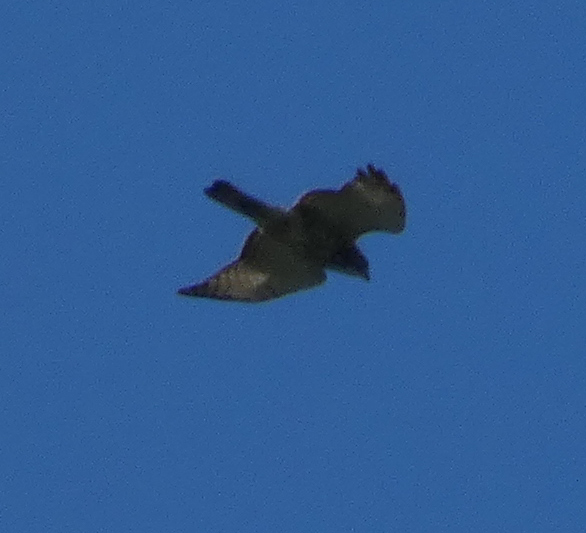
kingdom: Animalia
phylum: Chordata
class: Aves
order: Accipitriformes
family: Accipitridae
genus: Buteo
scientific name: Buteo platypterus
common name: Broad-winged hawk
